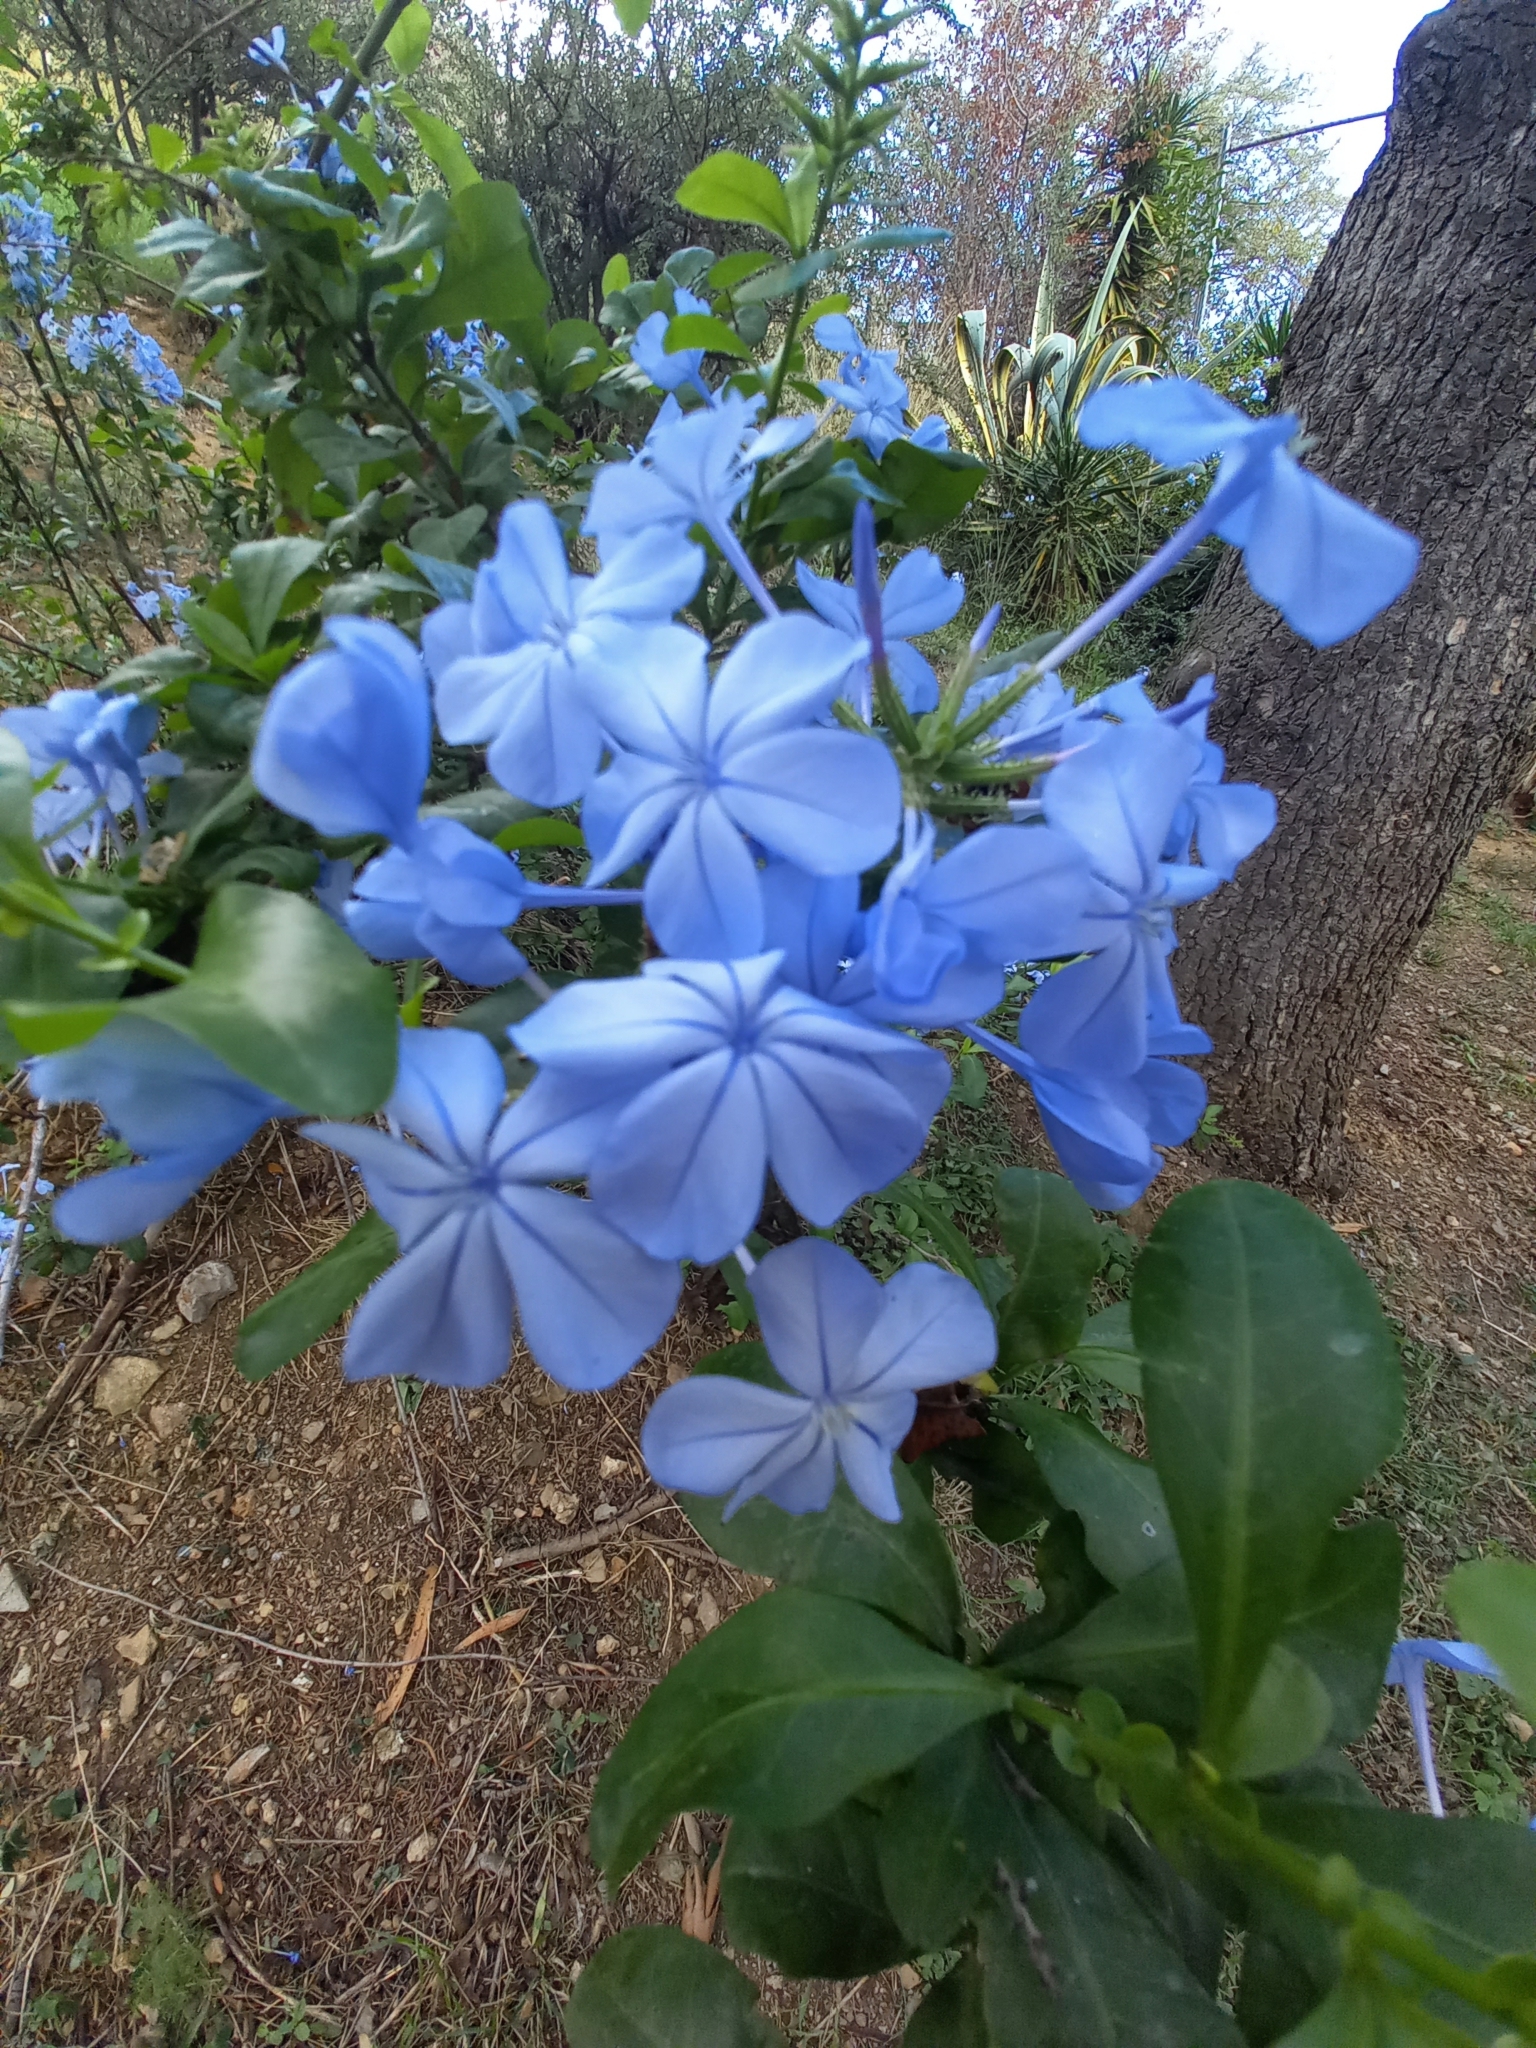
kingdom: Plantae
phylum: Tracheophyta
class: Magnoliopsida
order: Caryophyllales
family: Plumbaginaceae
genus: Plumbago
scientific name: Plumbago auriculata
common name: Cape leadwort
